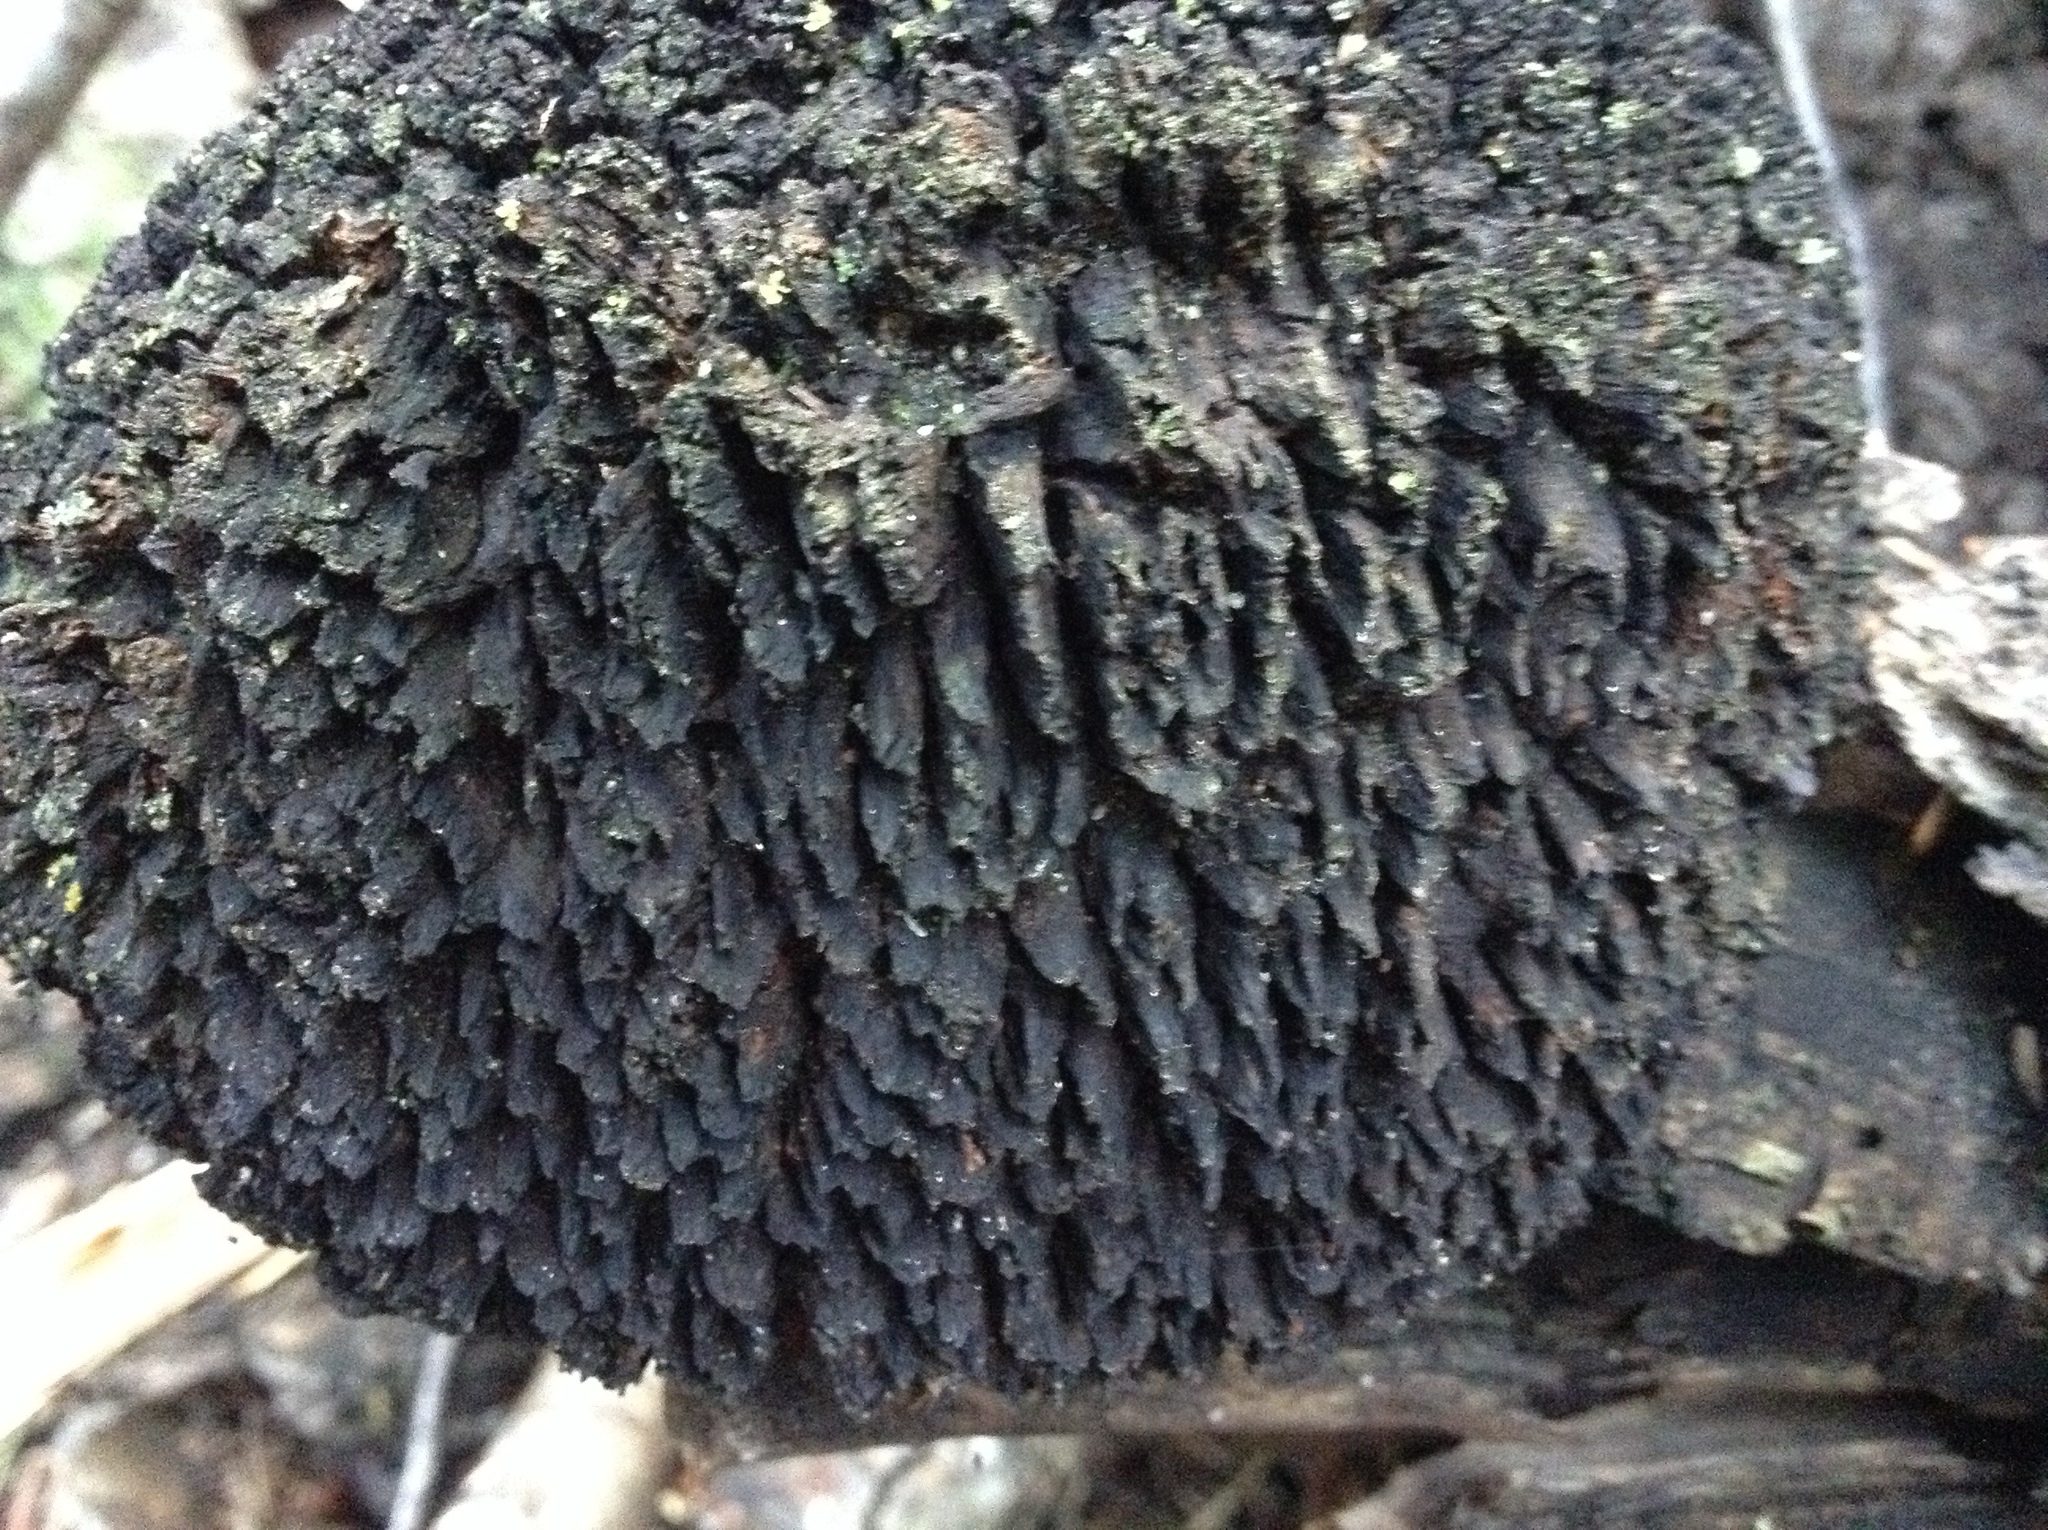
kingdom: Fungi
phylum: Basidiomycota
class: Agaricomycetes
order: Russulales
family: Echinodontiaceae
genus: Echinodontium
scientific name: Echinodontium tinctorium
